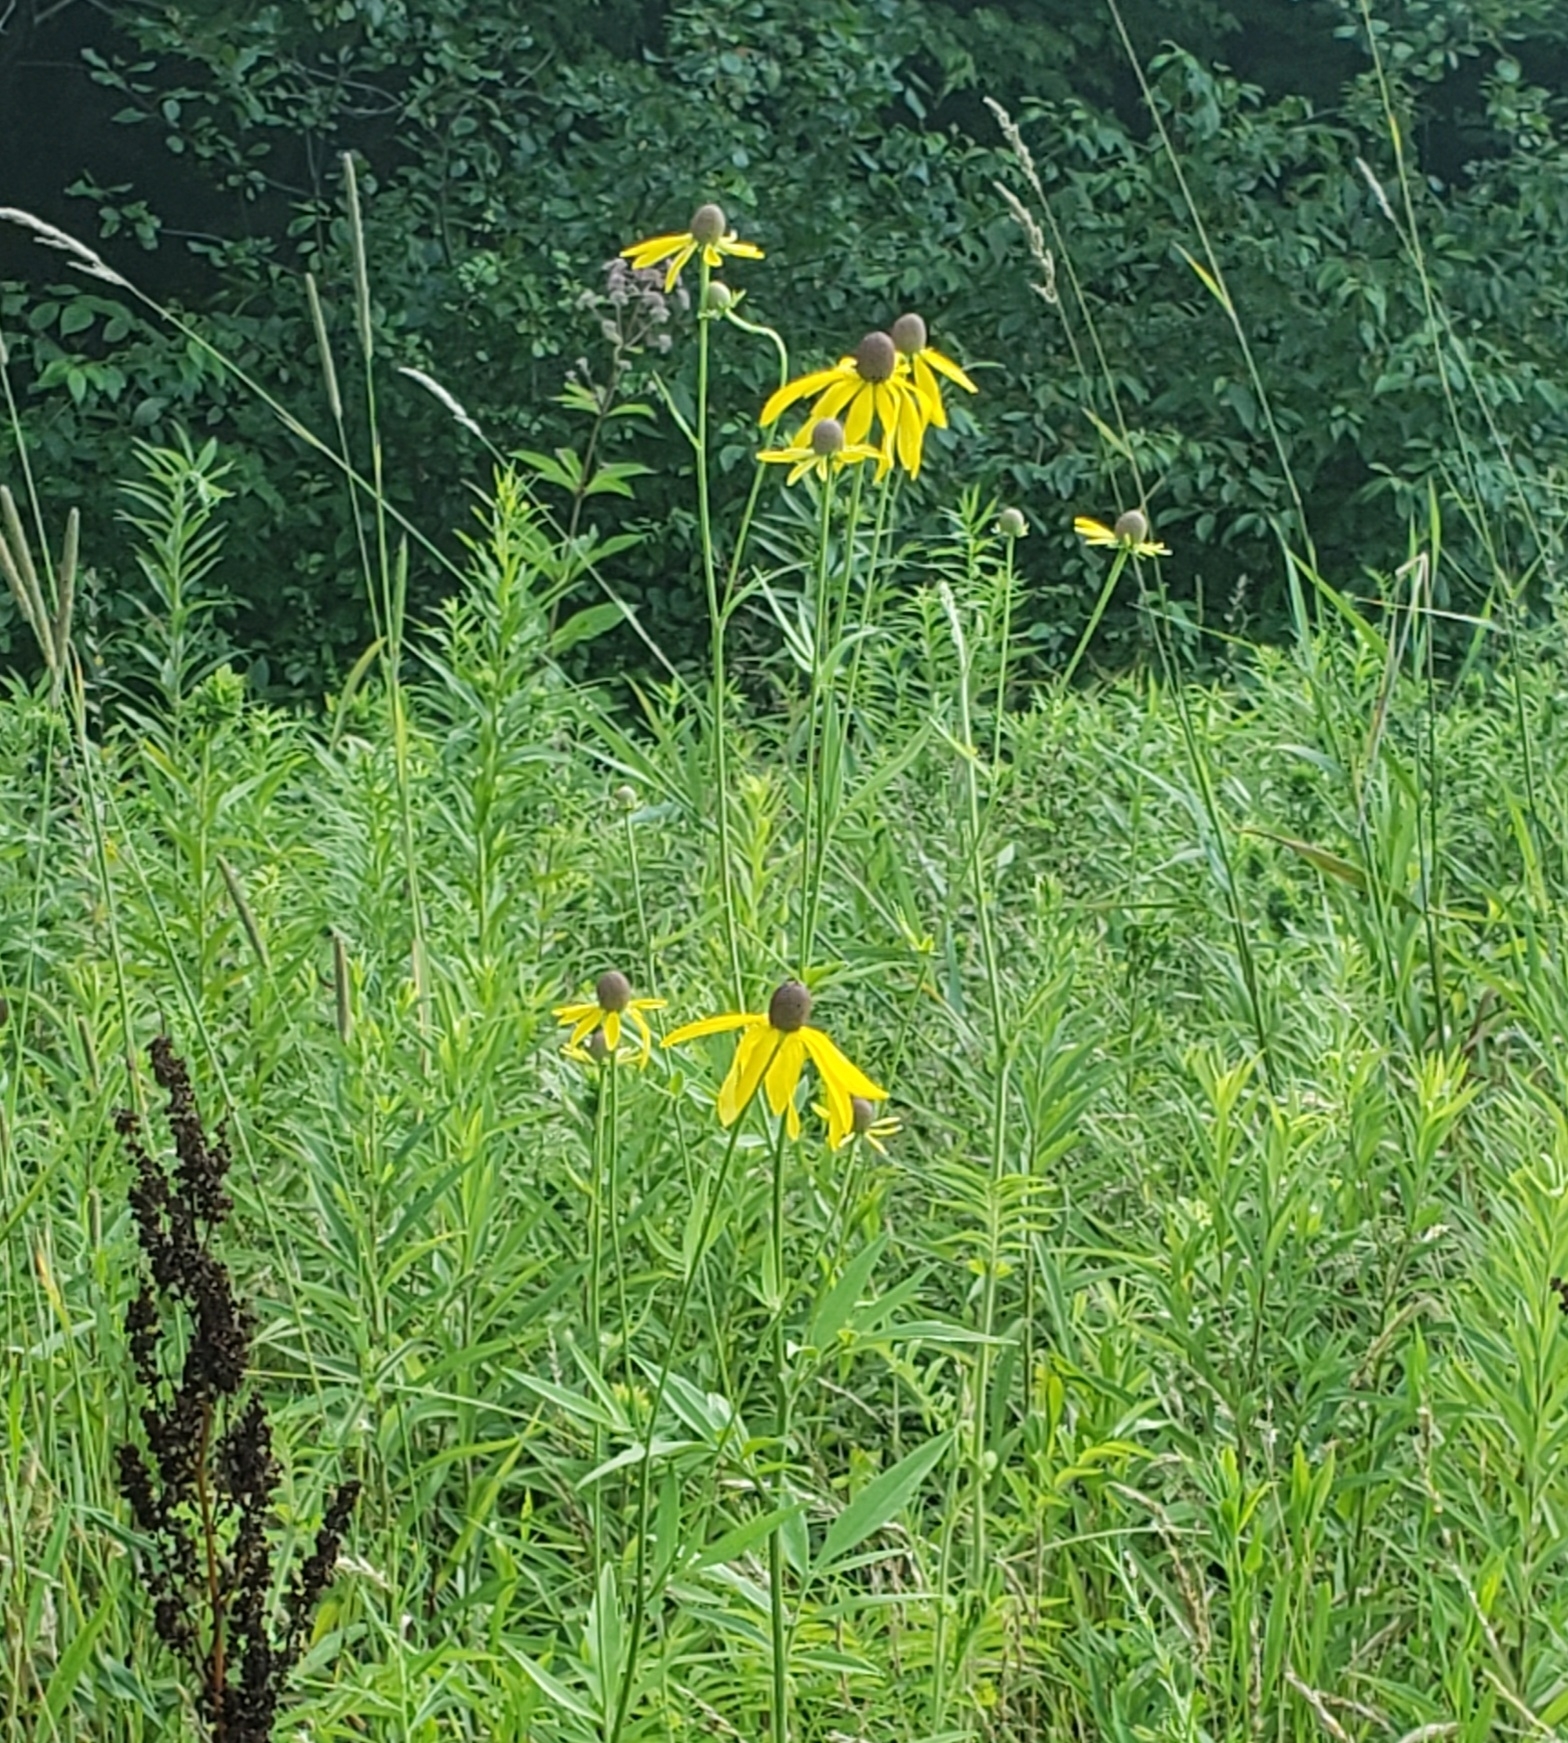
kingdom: Plantae
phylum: Tracheophyta
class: Magnoliopsida
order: Asterales
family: Asteraceae
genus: Ratibida
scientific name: Ratibida pinnata
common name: Drooping prairie-coneflower
